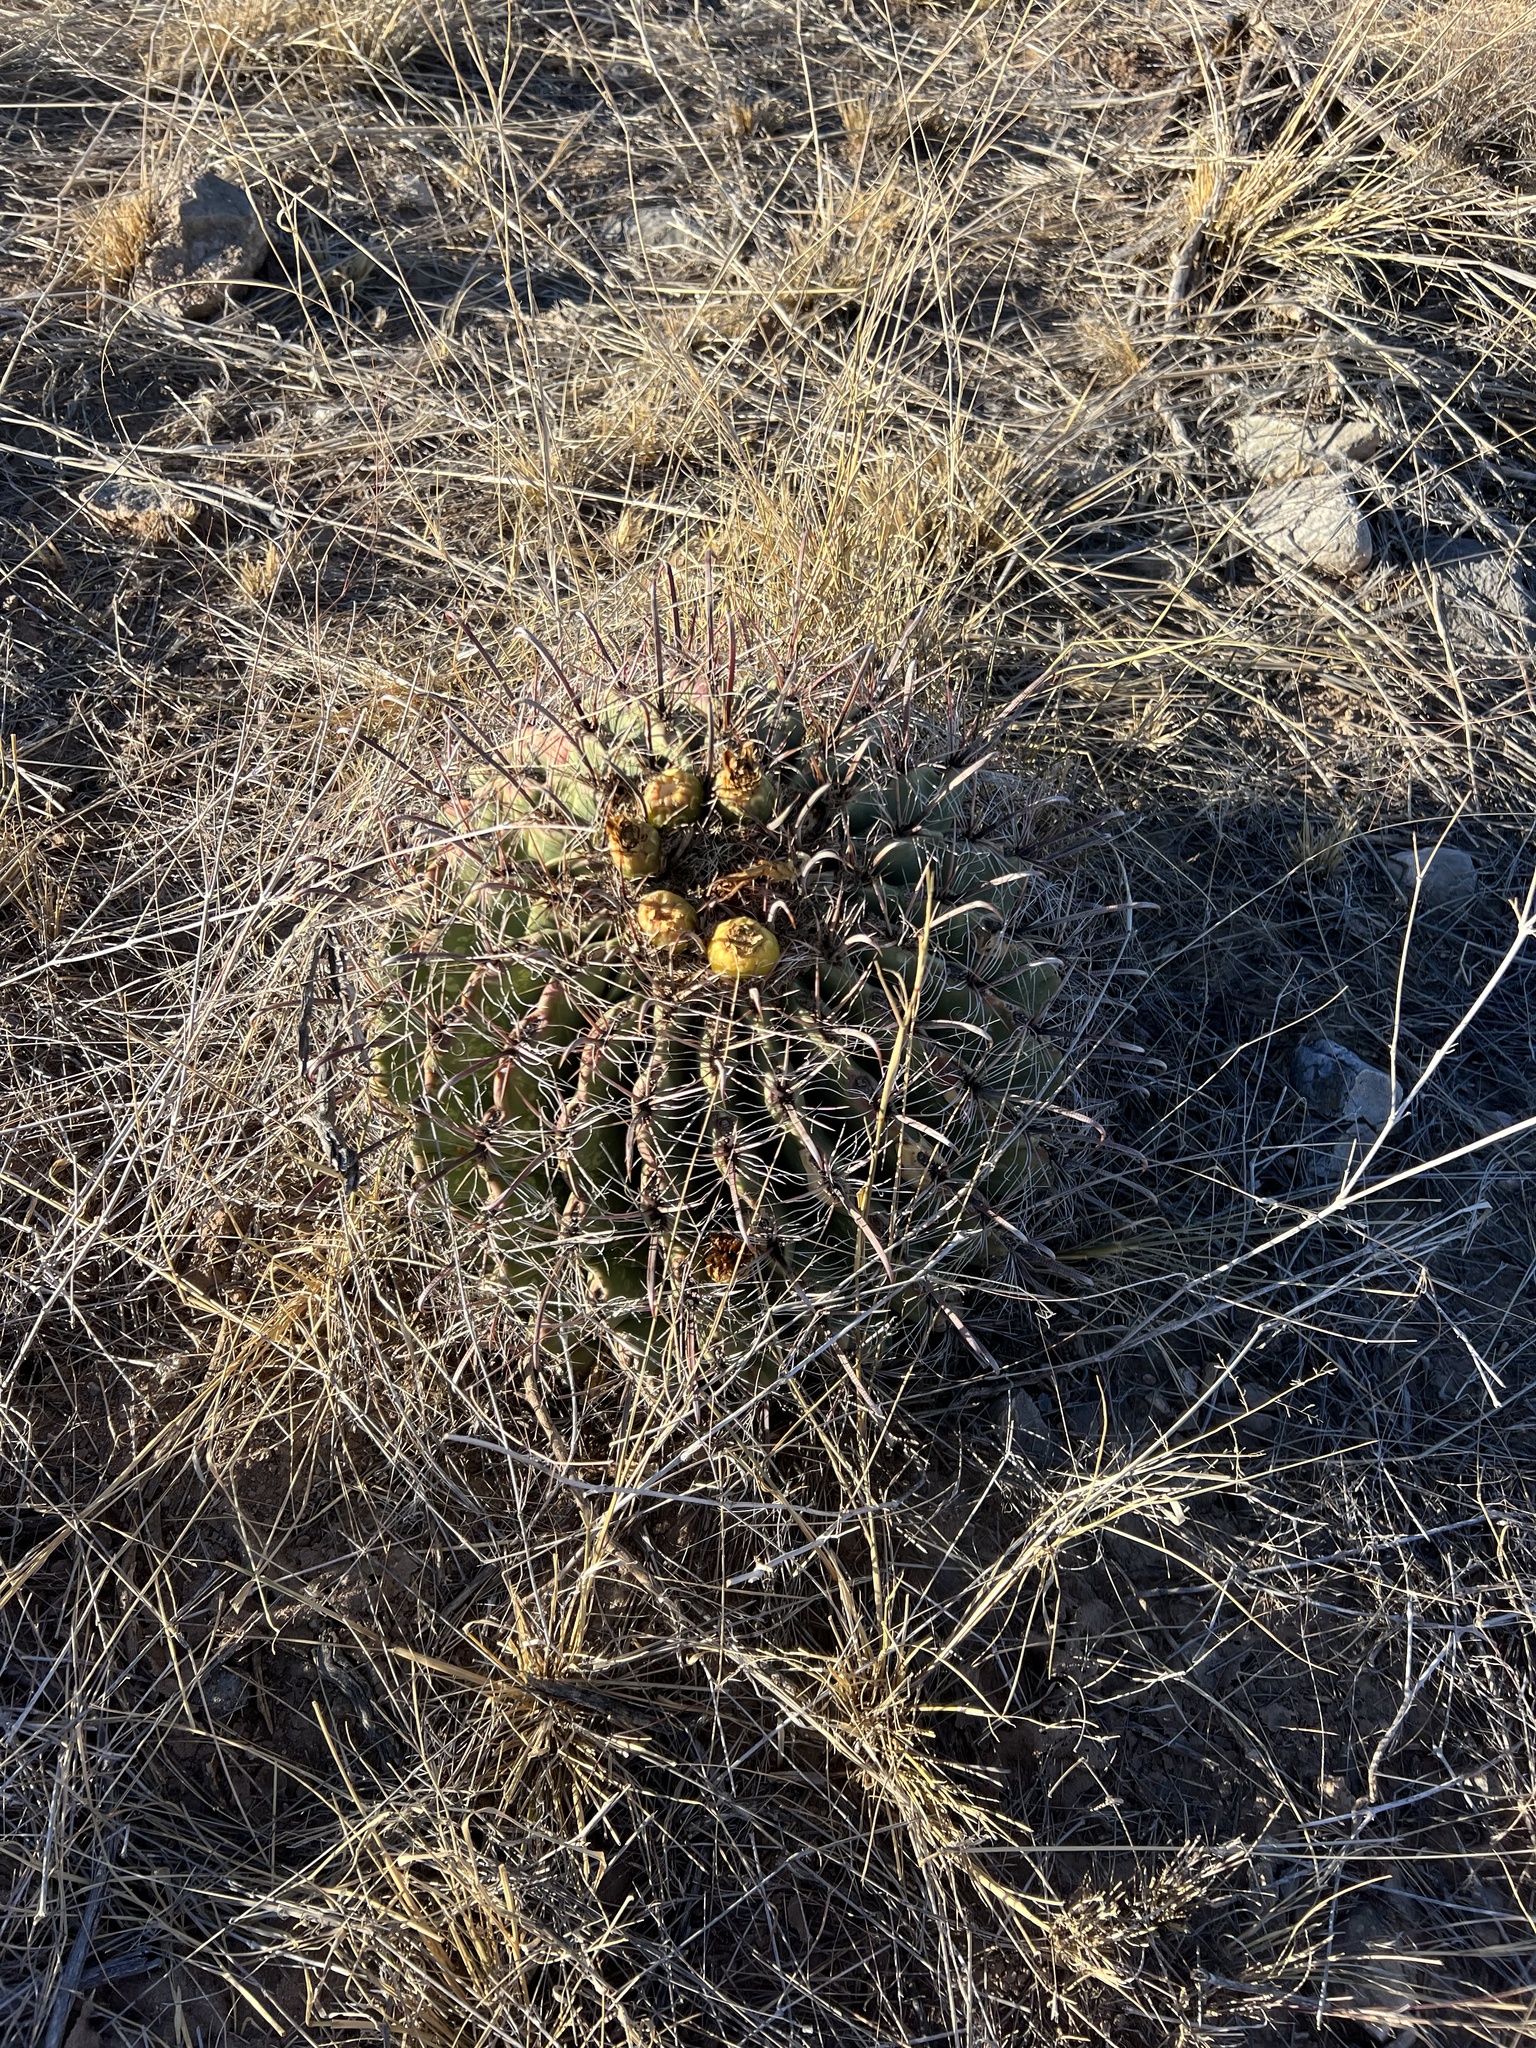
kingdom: Plantae
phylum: Tracheophyta
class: Magnoliopsida
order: Caryophyllales
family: Cactaceae
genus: Ferocactus
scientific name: Ferocactus wislizeni
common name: Candy barrel cactus
